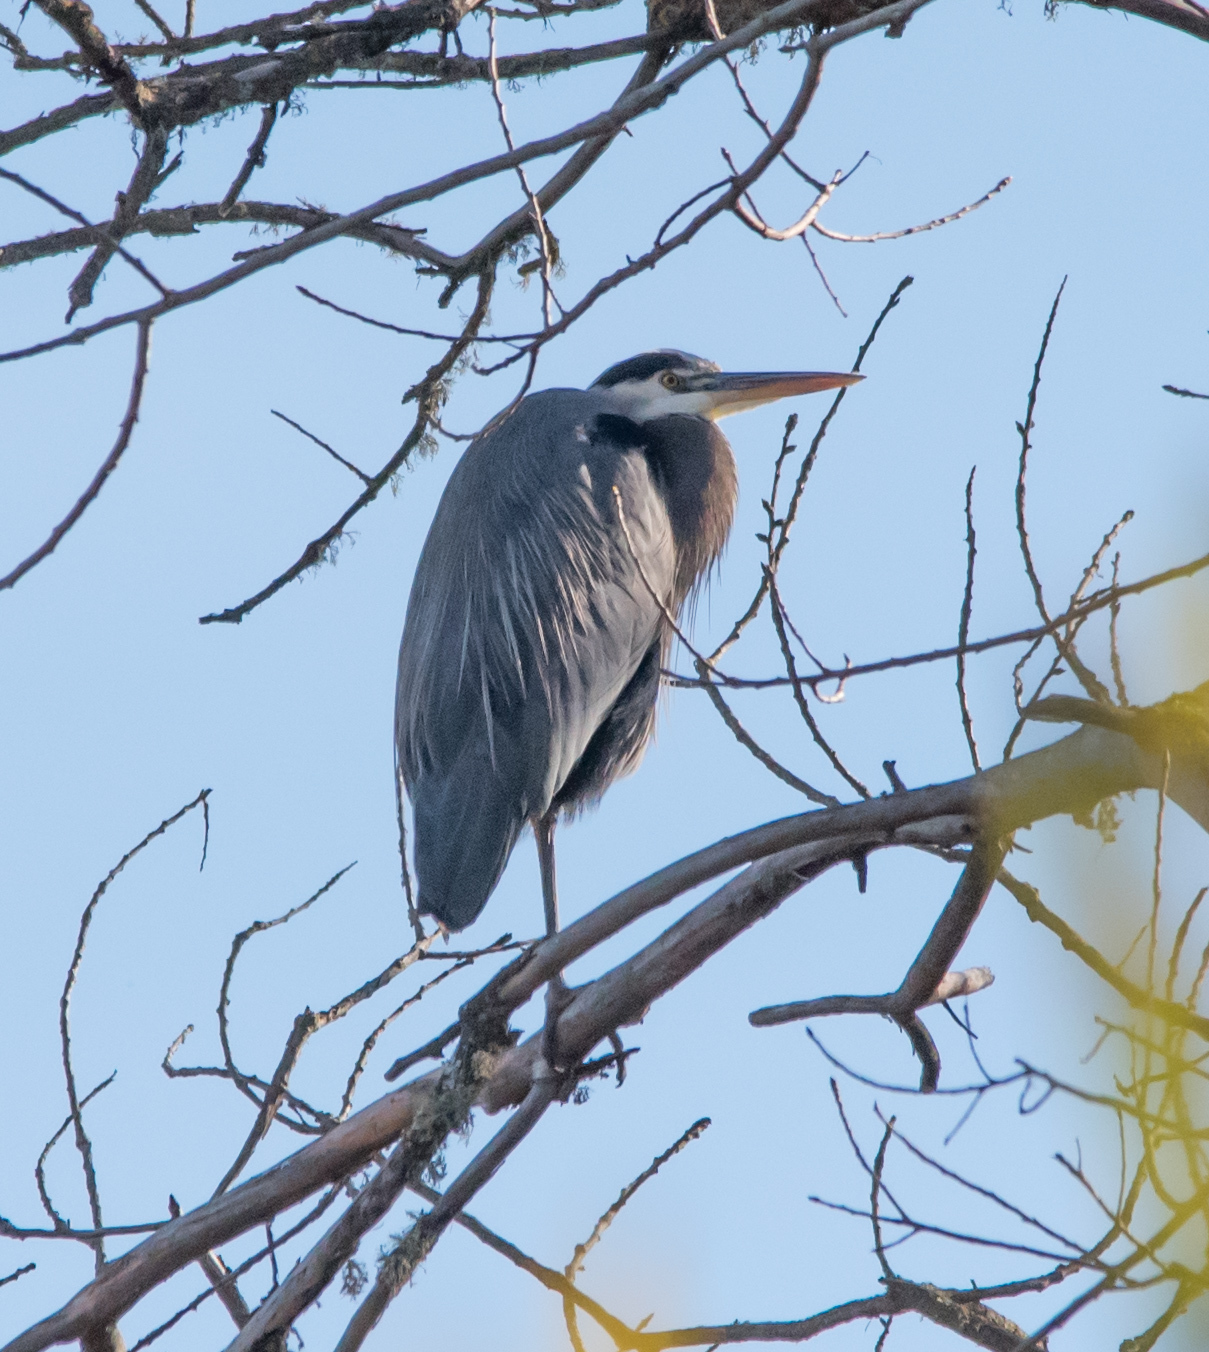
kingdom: Animalia
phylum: Chordata
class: Aves
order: Pelecaniformes
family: Ardeidae
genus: Ardea
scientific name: Ardea herodias
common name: Great blue heron
